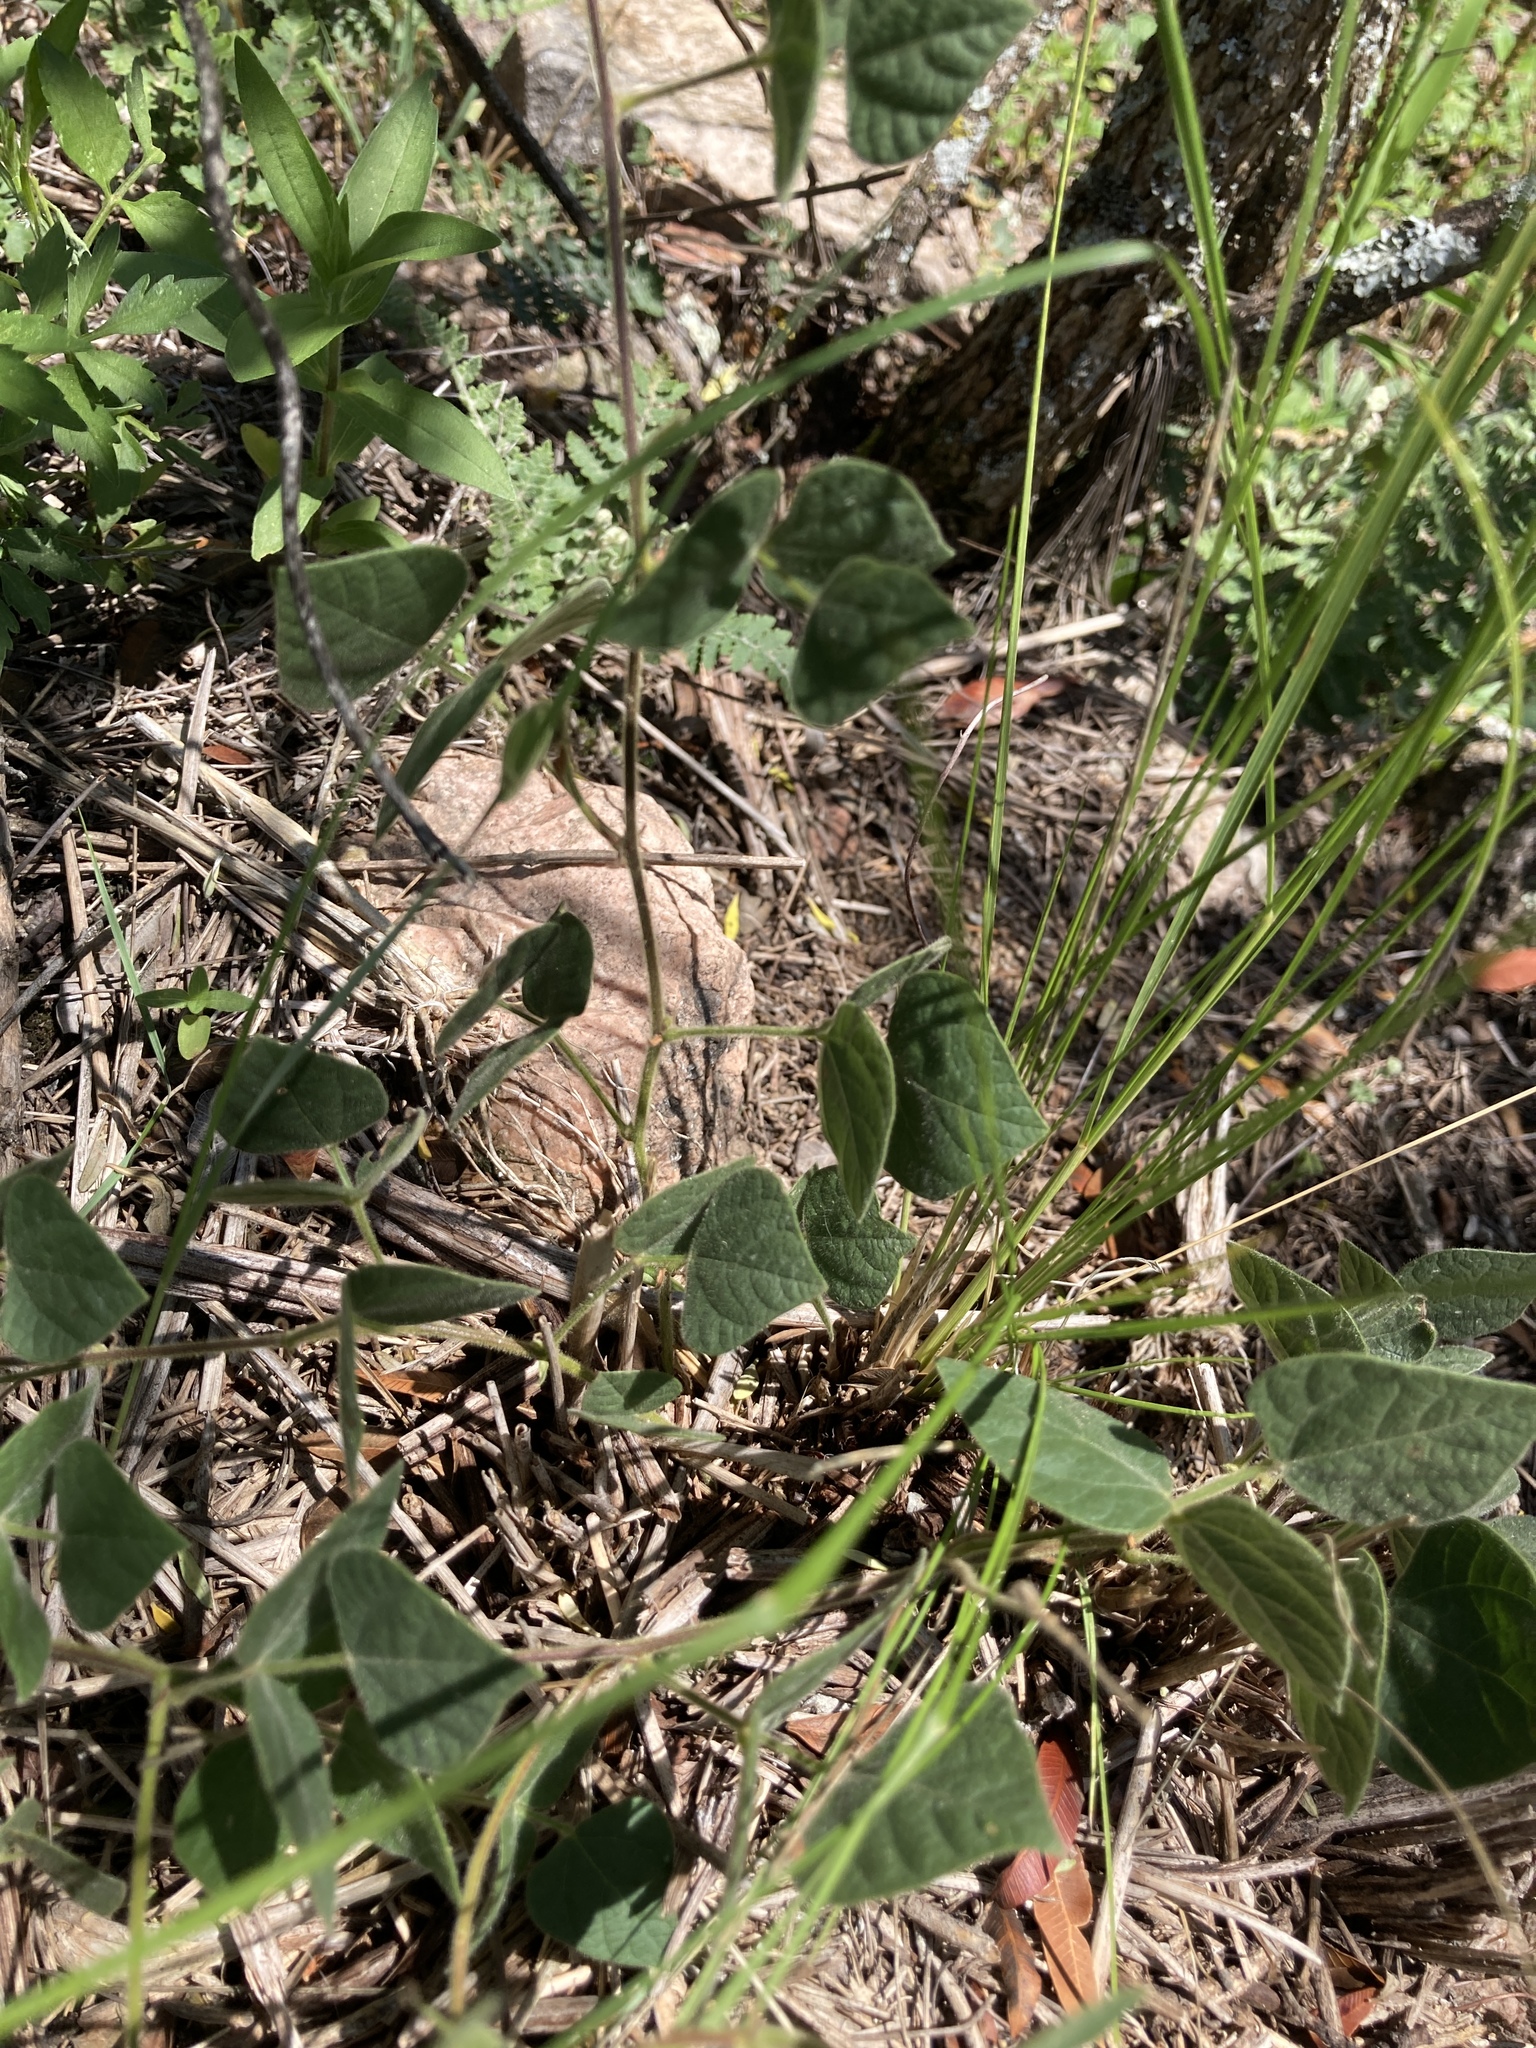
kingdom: Plantae
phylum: Tracheophyta
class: Magnoliopsida
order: Fabales
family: Fabaceae
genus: Rhynchosia
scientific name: Rhynchosia edulis
